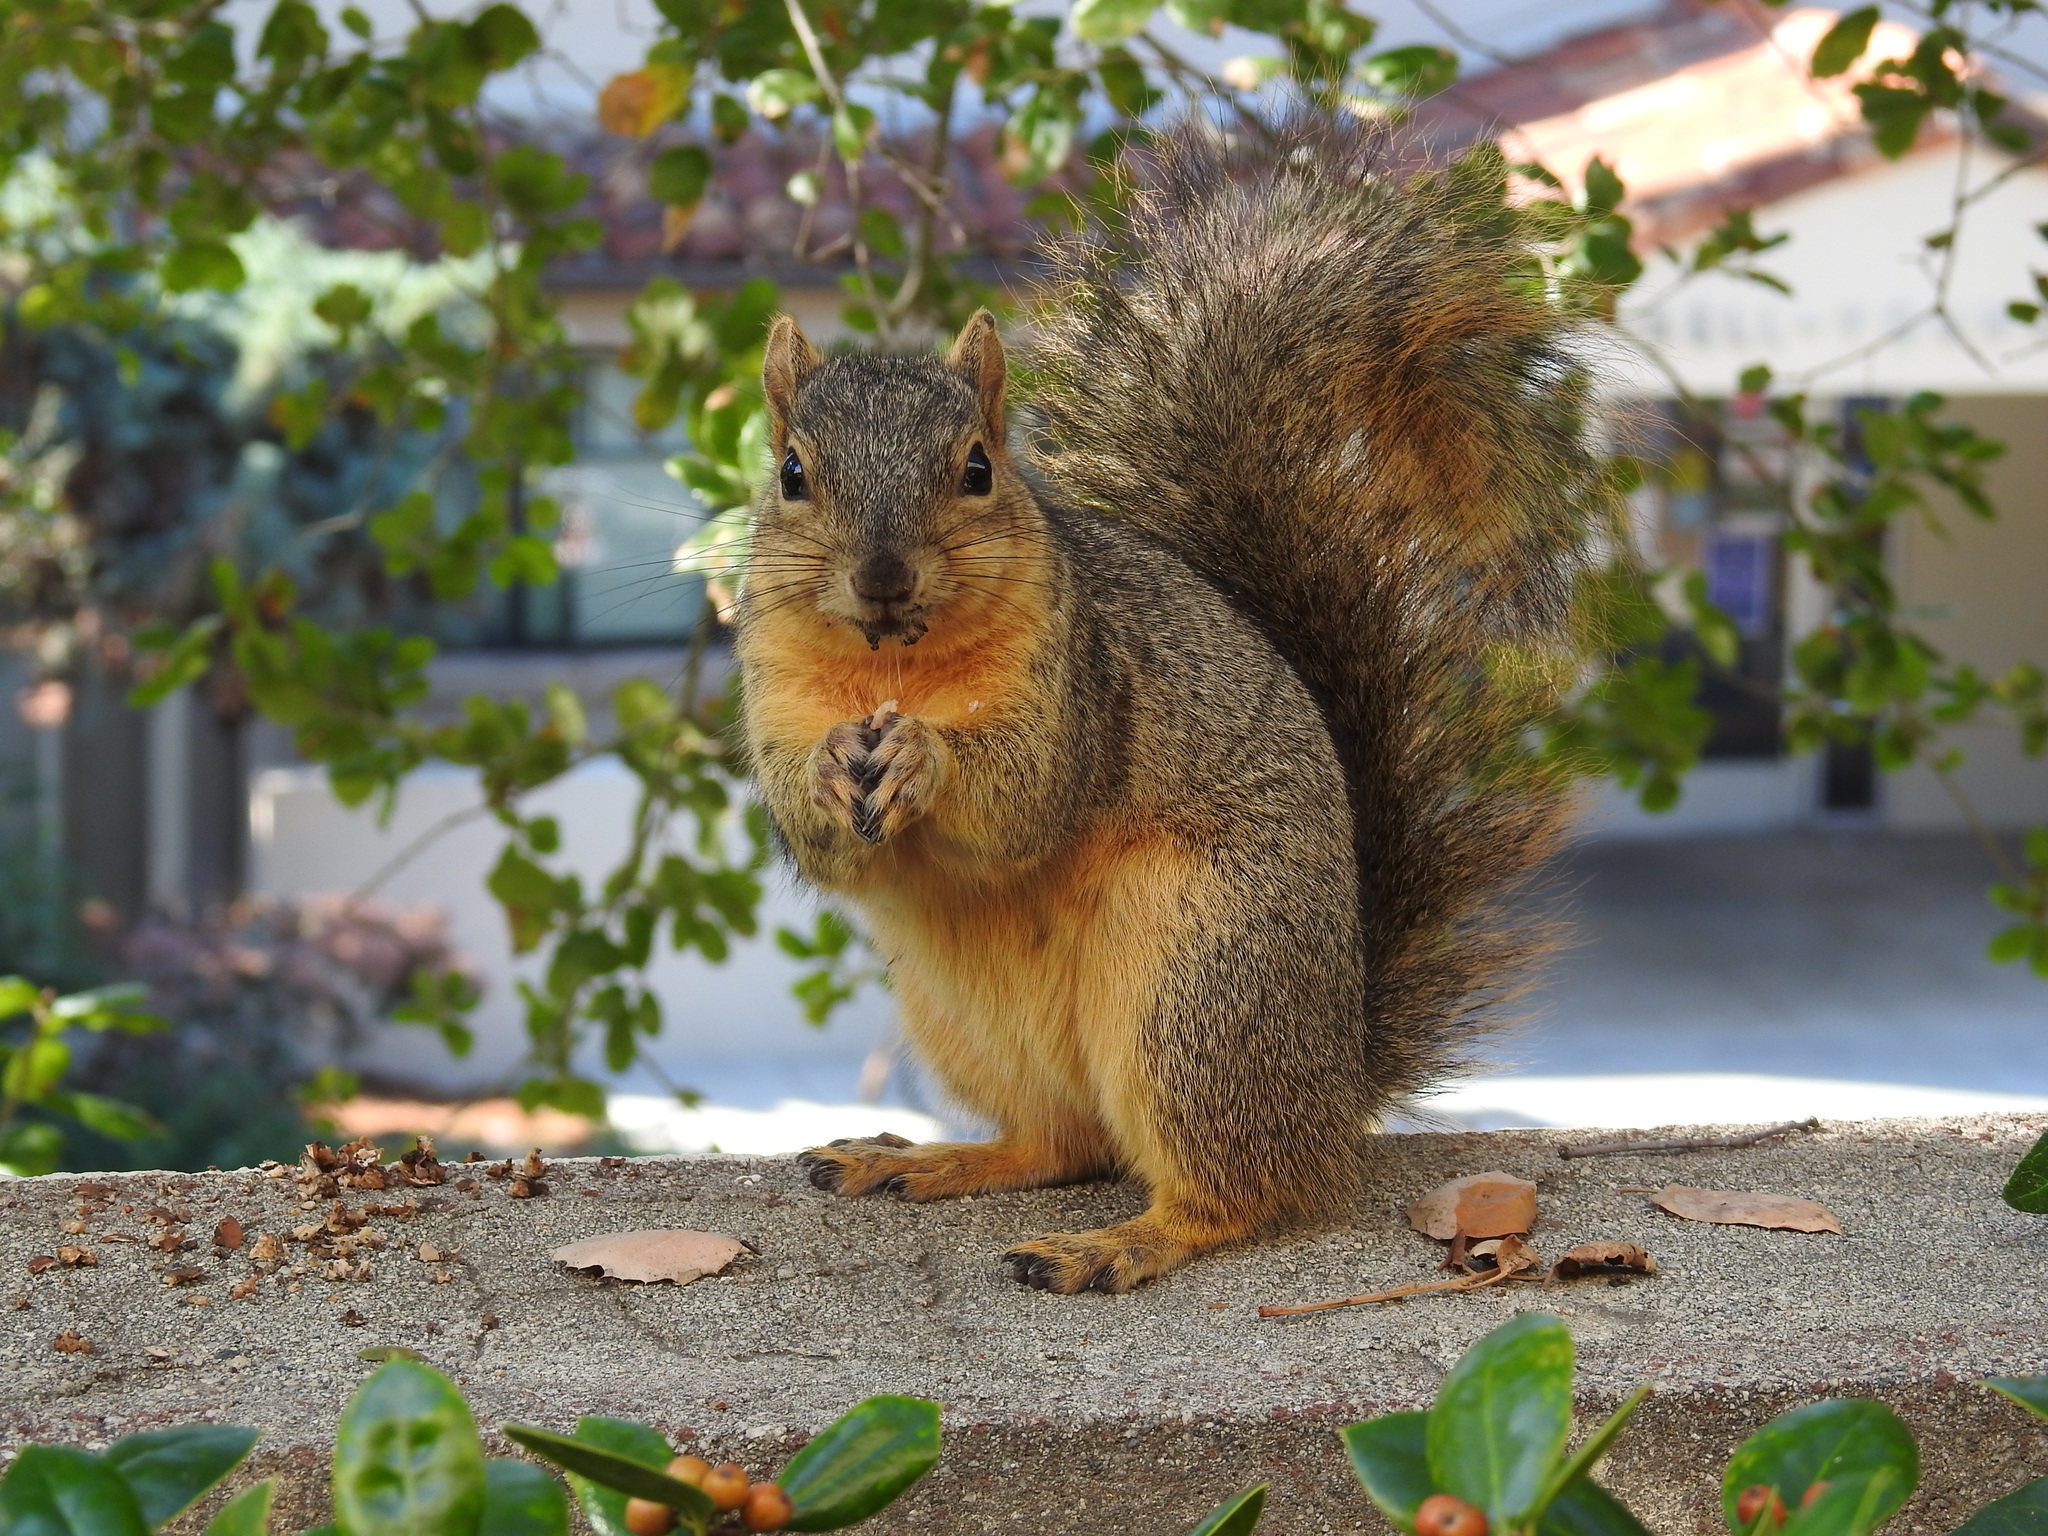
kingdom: Animalia
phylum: Chordata
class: Mammalia
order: Rodentia
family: Sciuridae
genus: Sciurus
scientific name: Sciurus niger
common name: Fox squirrel
